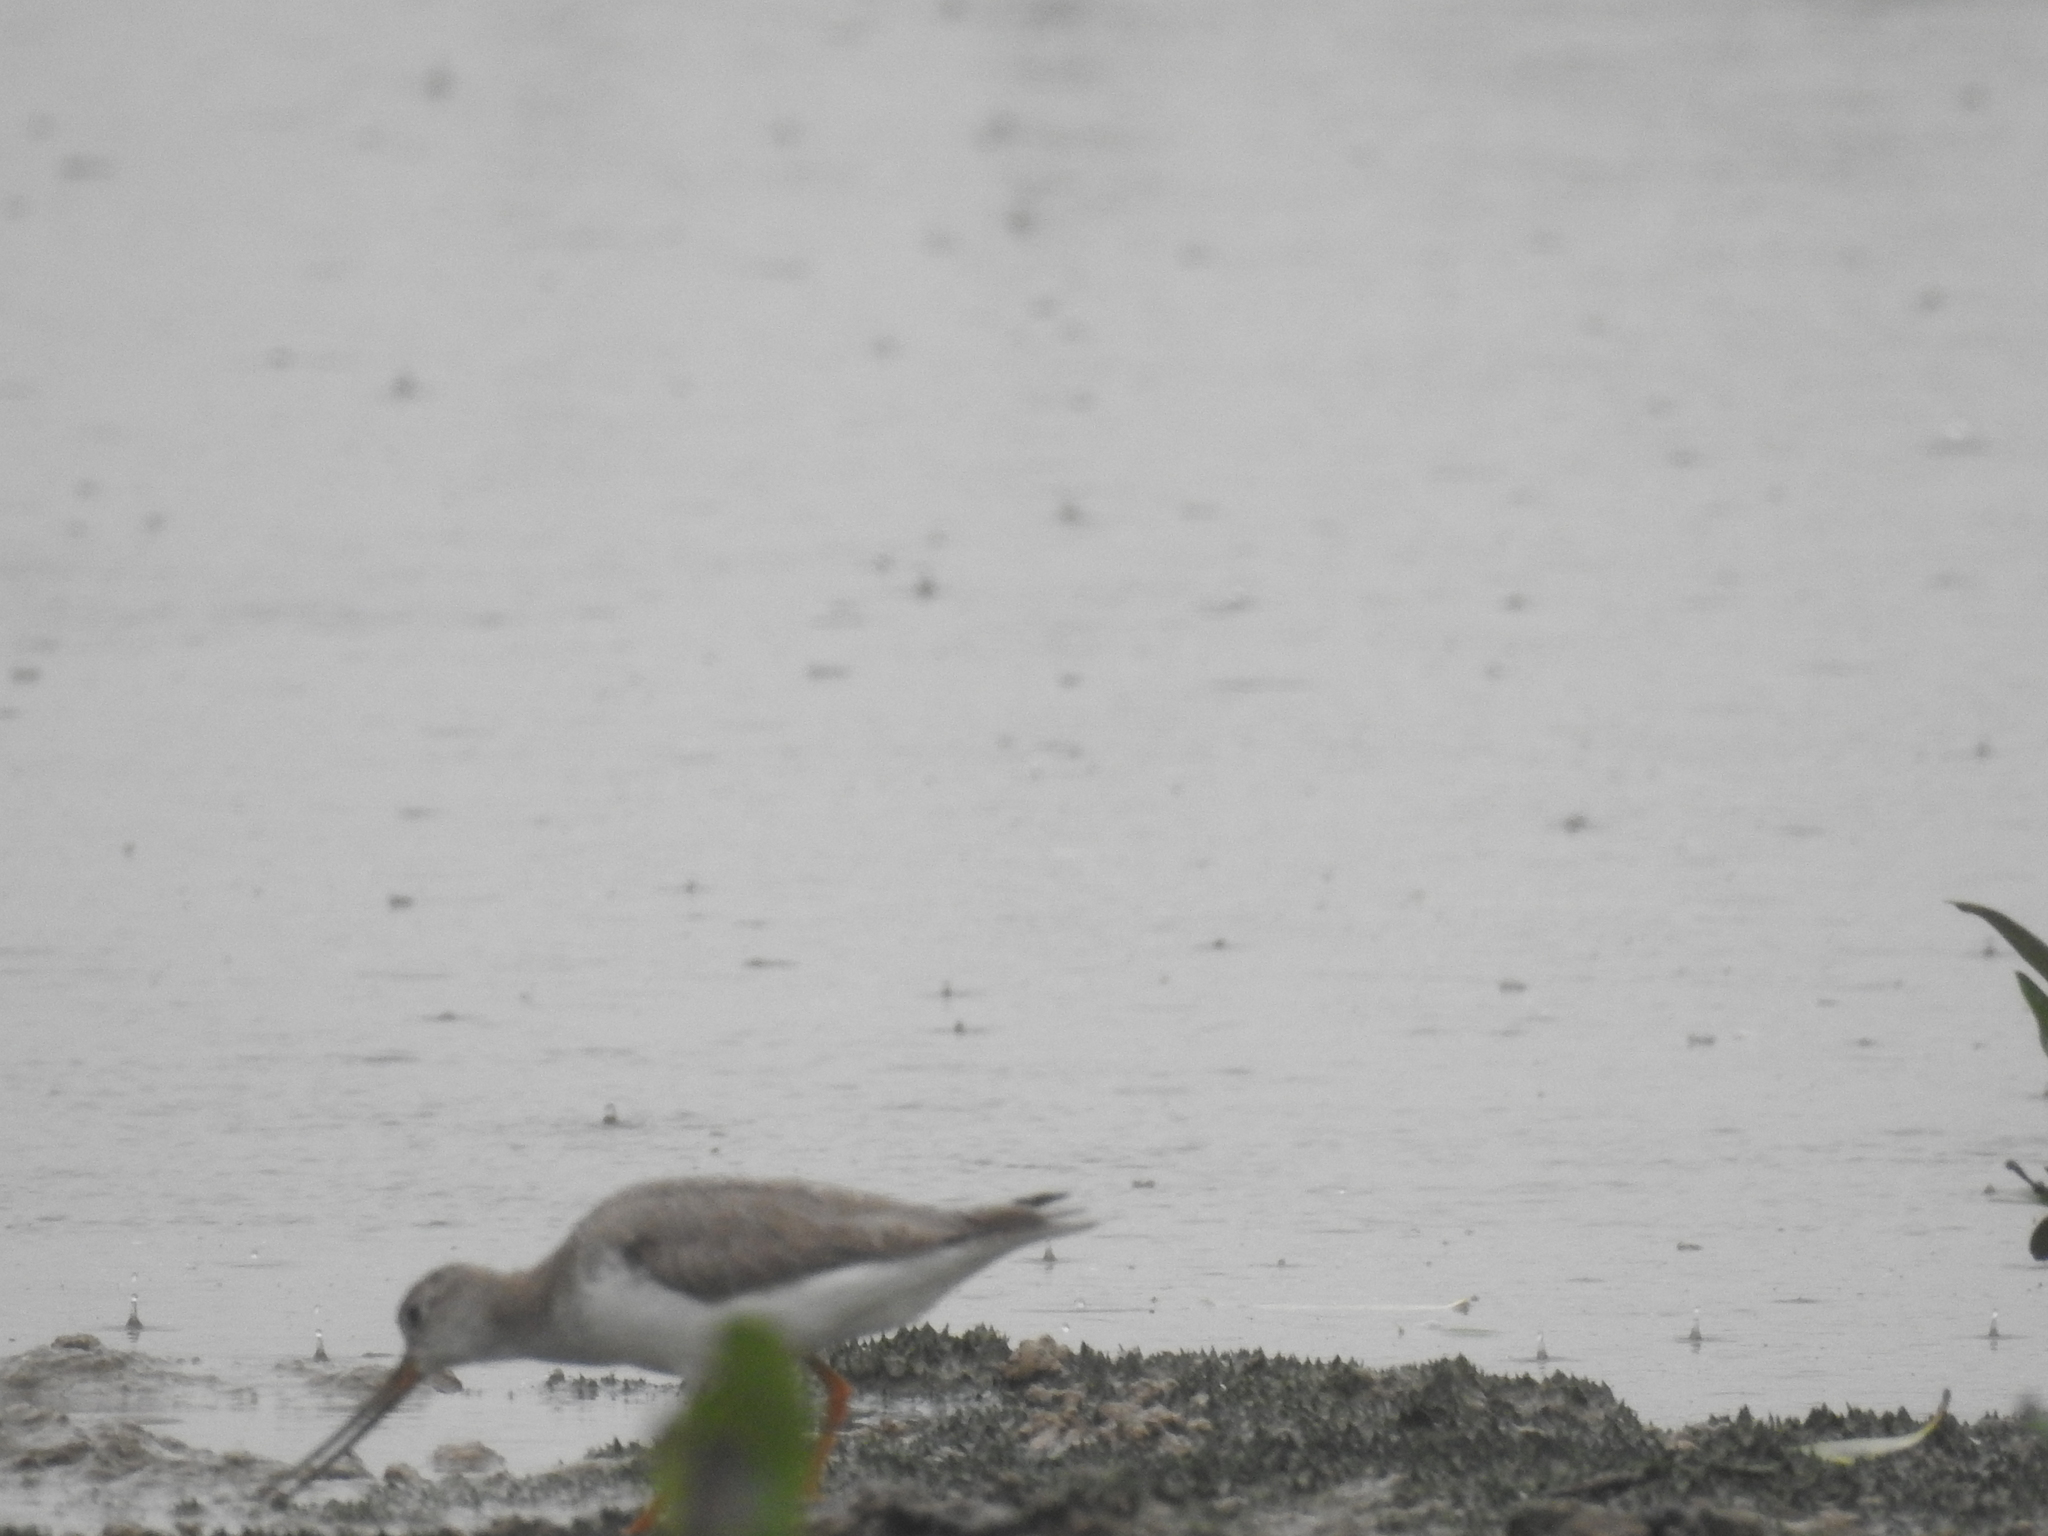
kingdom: Animalia
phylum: Chordata
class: Aves
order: Charadriiformes
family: Scolopacidae
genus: Xenus
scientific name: Xenus cinereus
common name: Terek sandpiper
